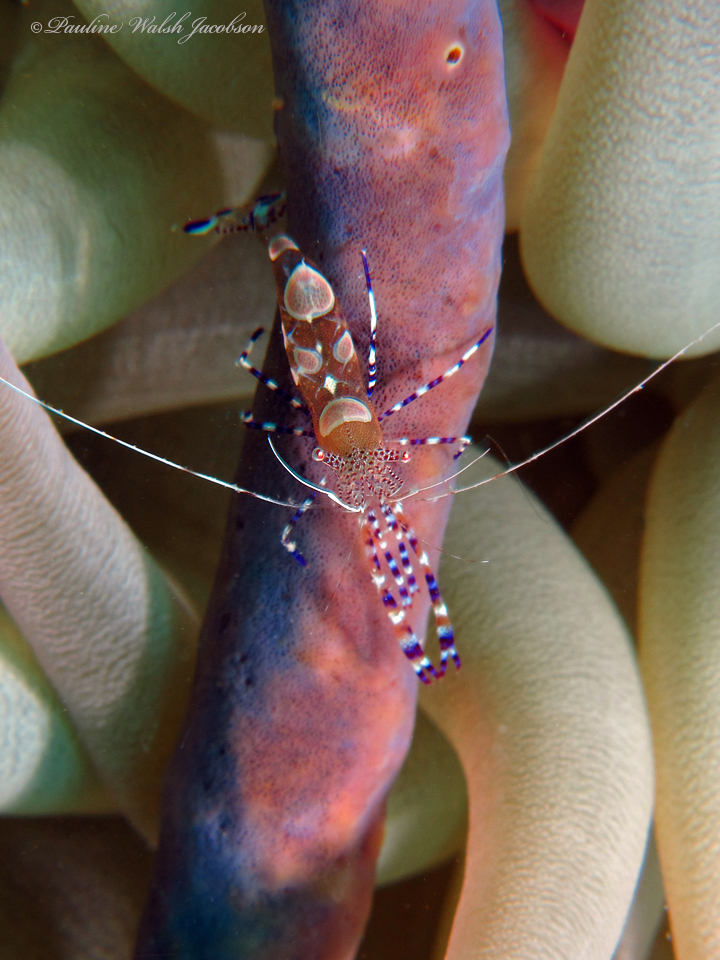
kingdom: Animalia
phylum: Arthropoda
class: Malacostraca
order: Decapoda
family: Palaemonidae
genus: Periclimenes
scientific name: Periclimenes yucatanicus
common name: Spotted cleaning shrimp
